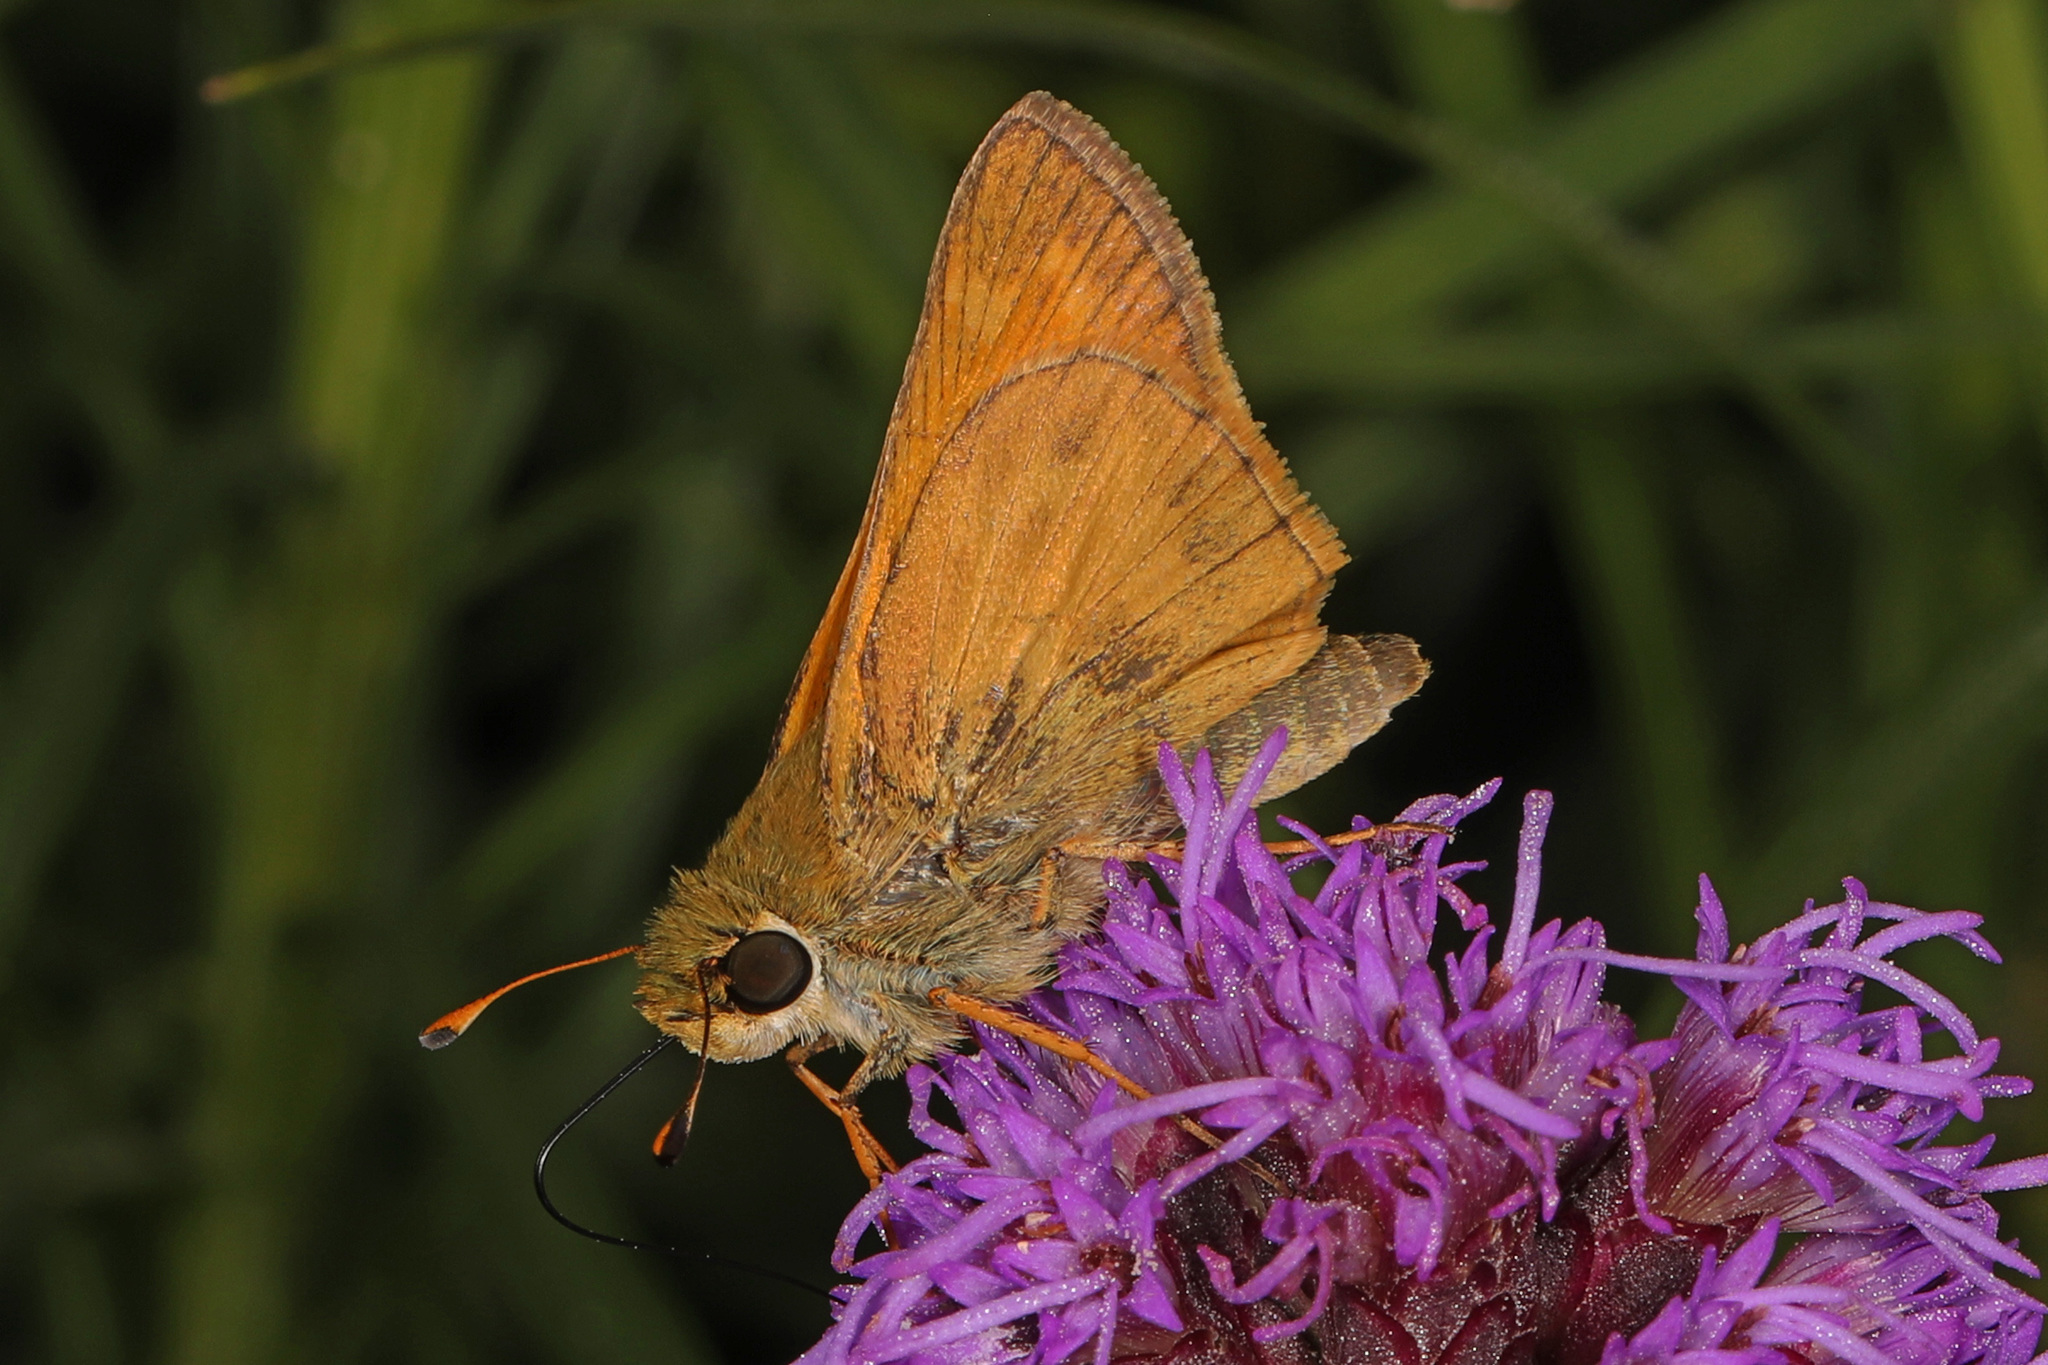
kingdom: Animalia
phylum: Arthropoda
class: Insecta
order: Lepidoptera
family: Hesperiidae
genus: Atalopedes
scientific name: Atalopedes
